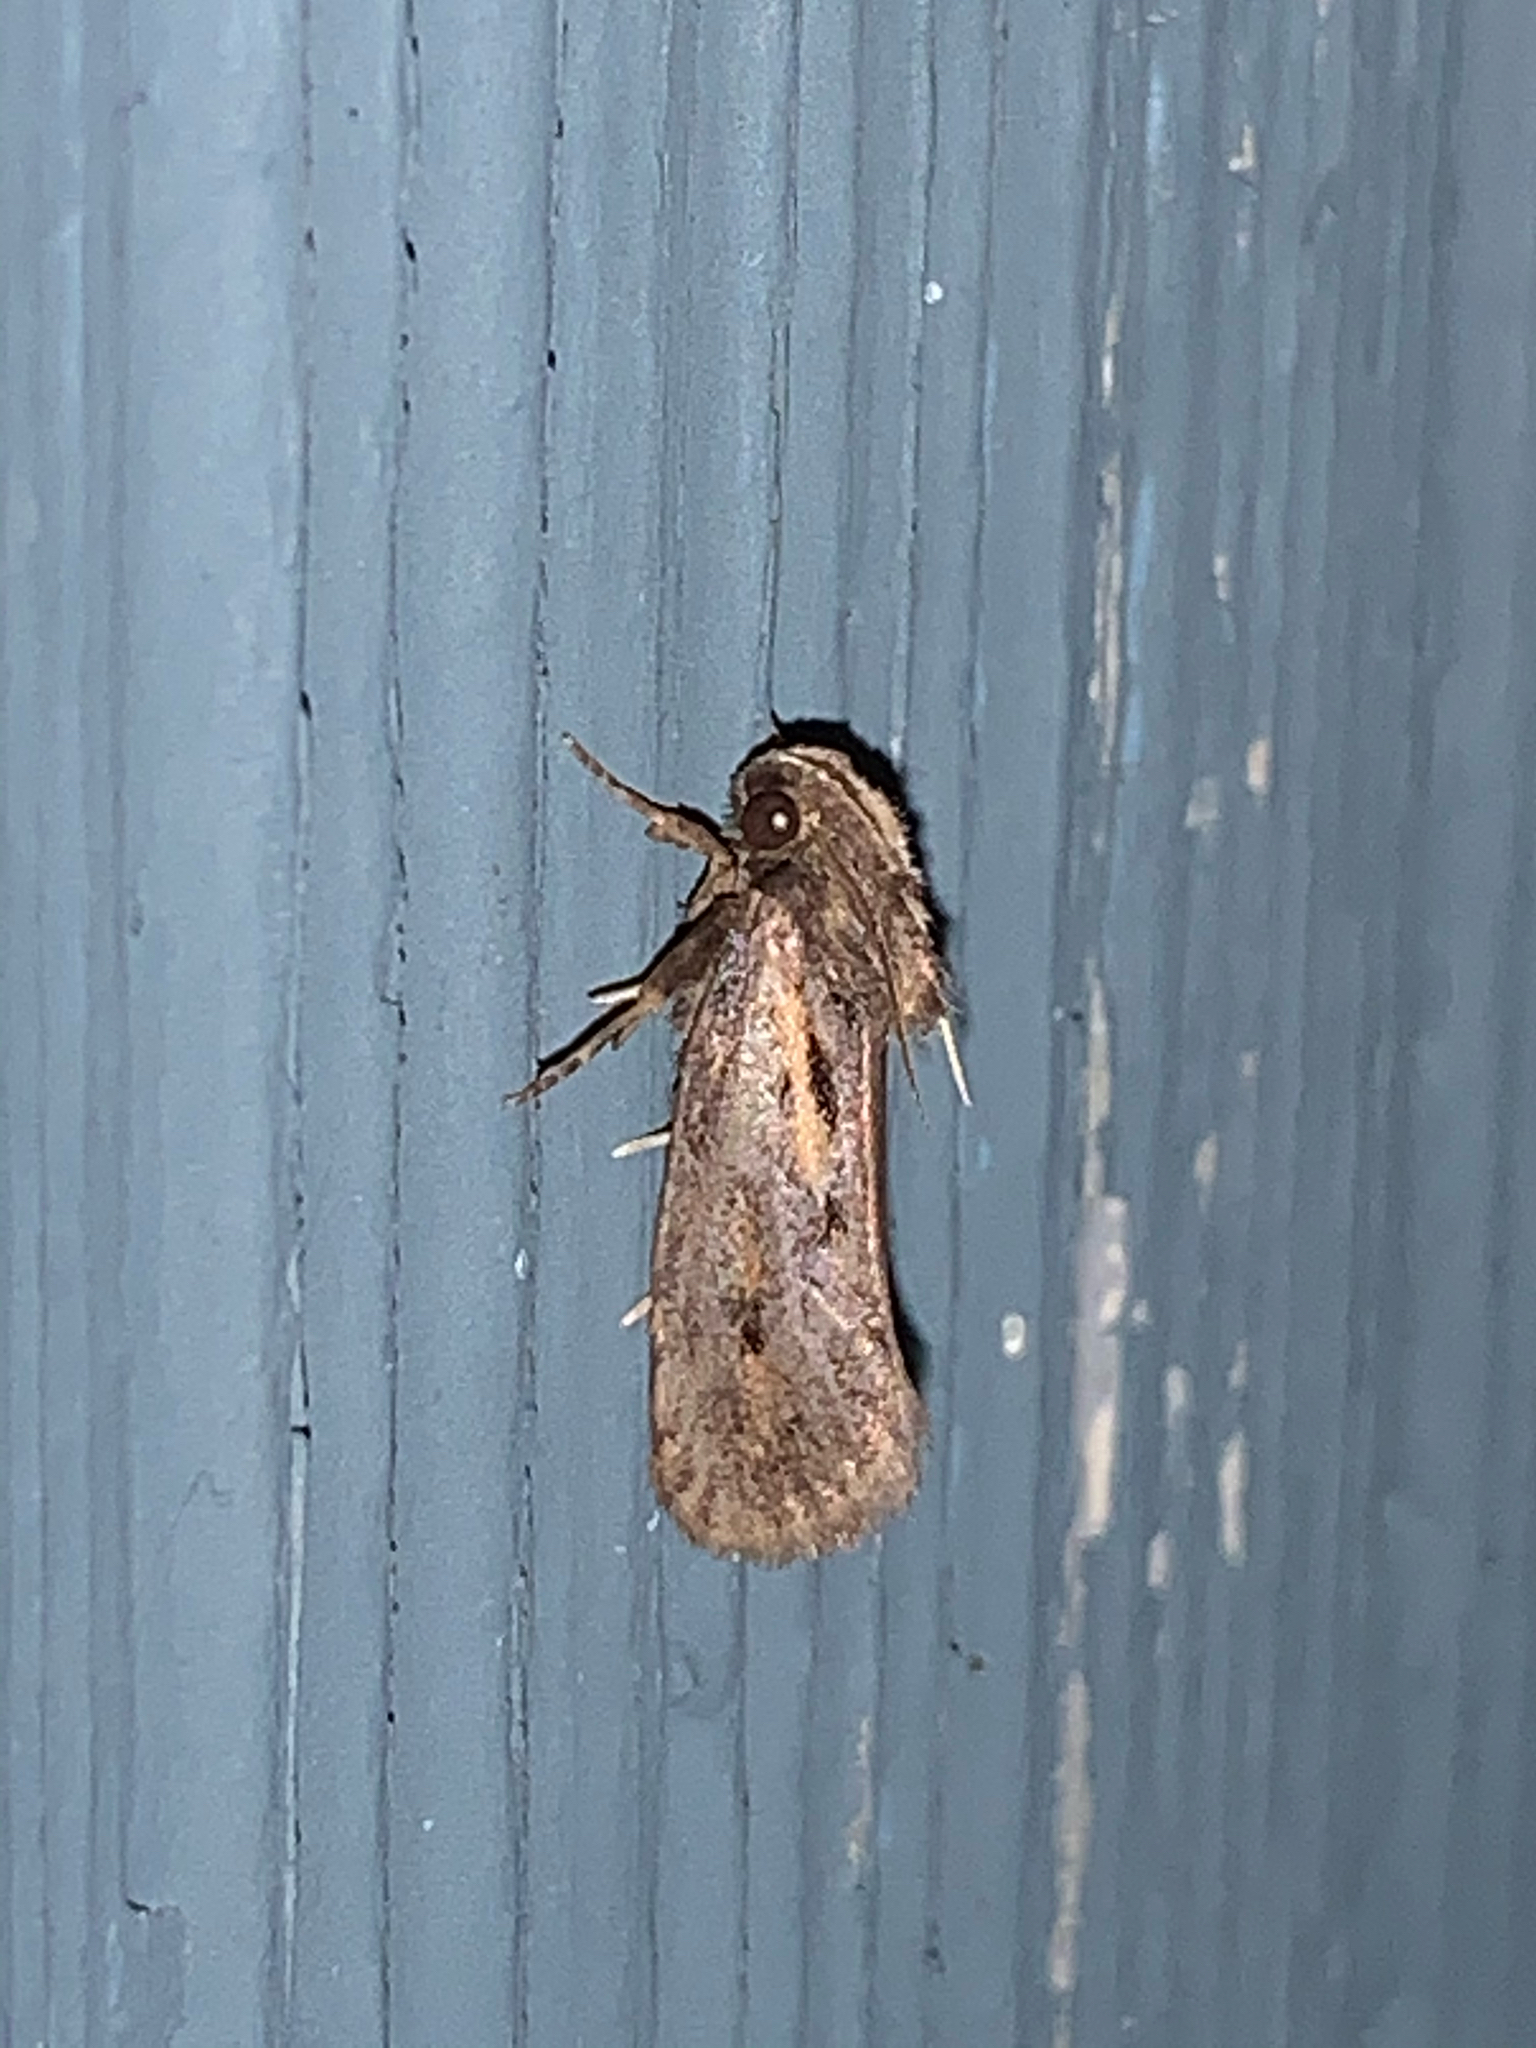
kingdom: Animalia
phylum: Arthropoda
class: Insecta
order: Lepidoptera
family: Tineidae
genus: Acrolophus
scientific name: Acrolophus popeanella
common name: Clemens' grass tubeworm moth
